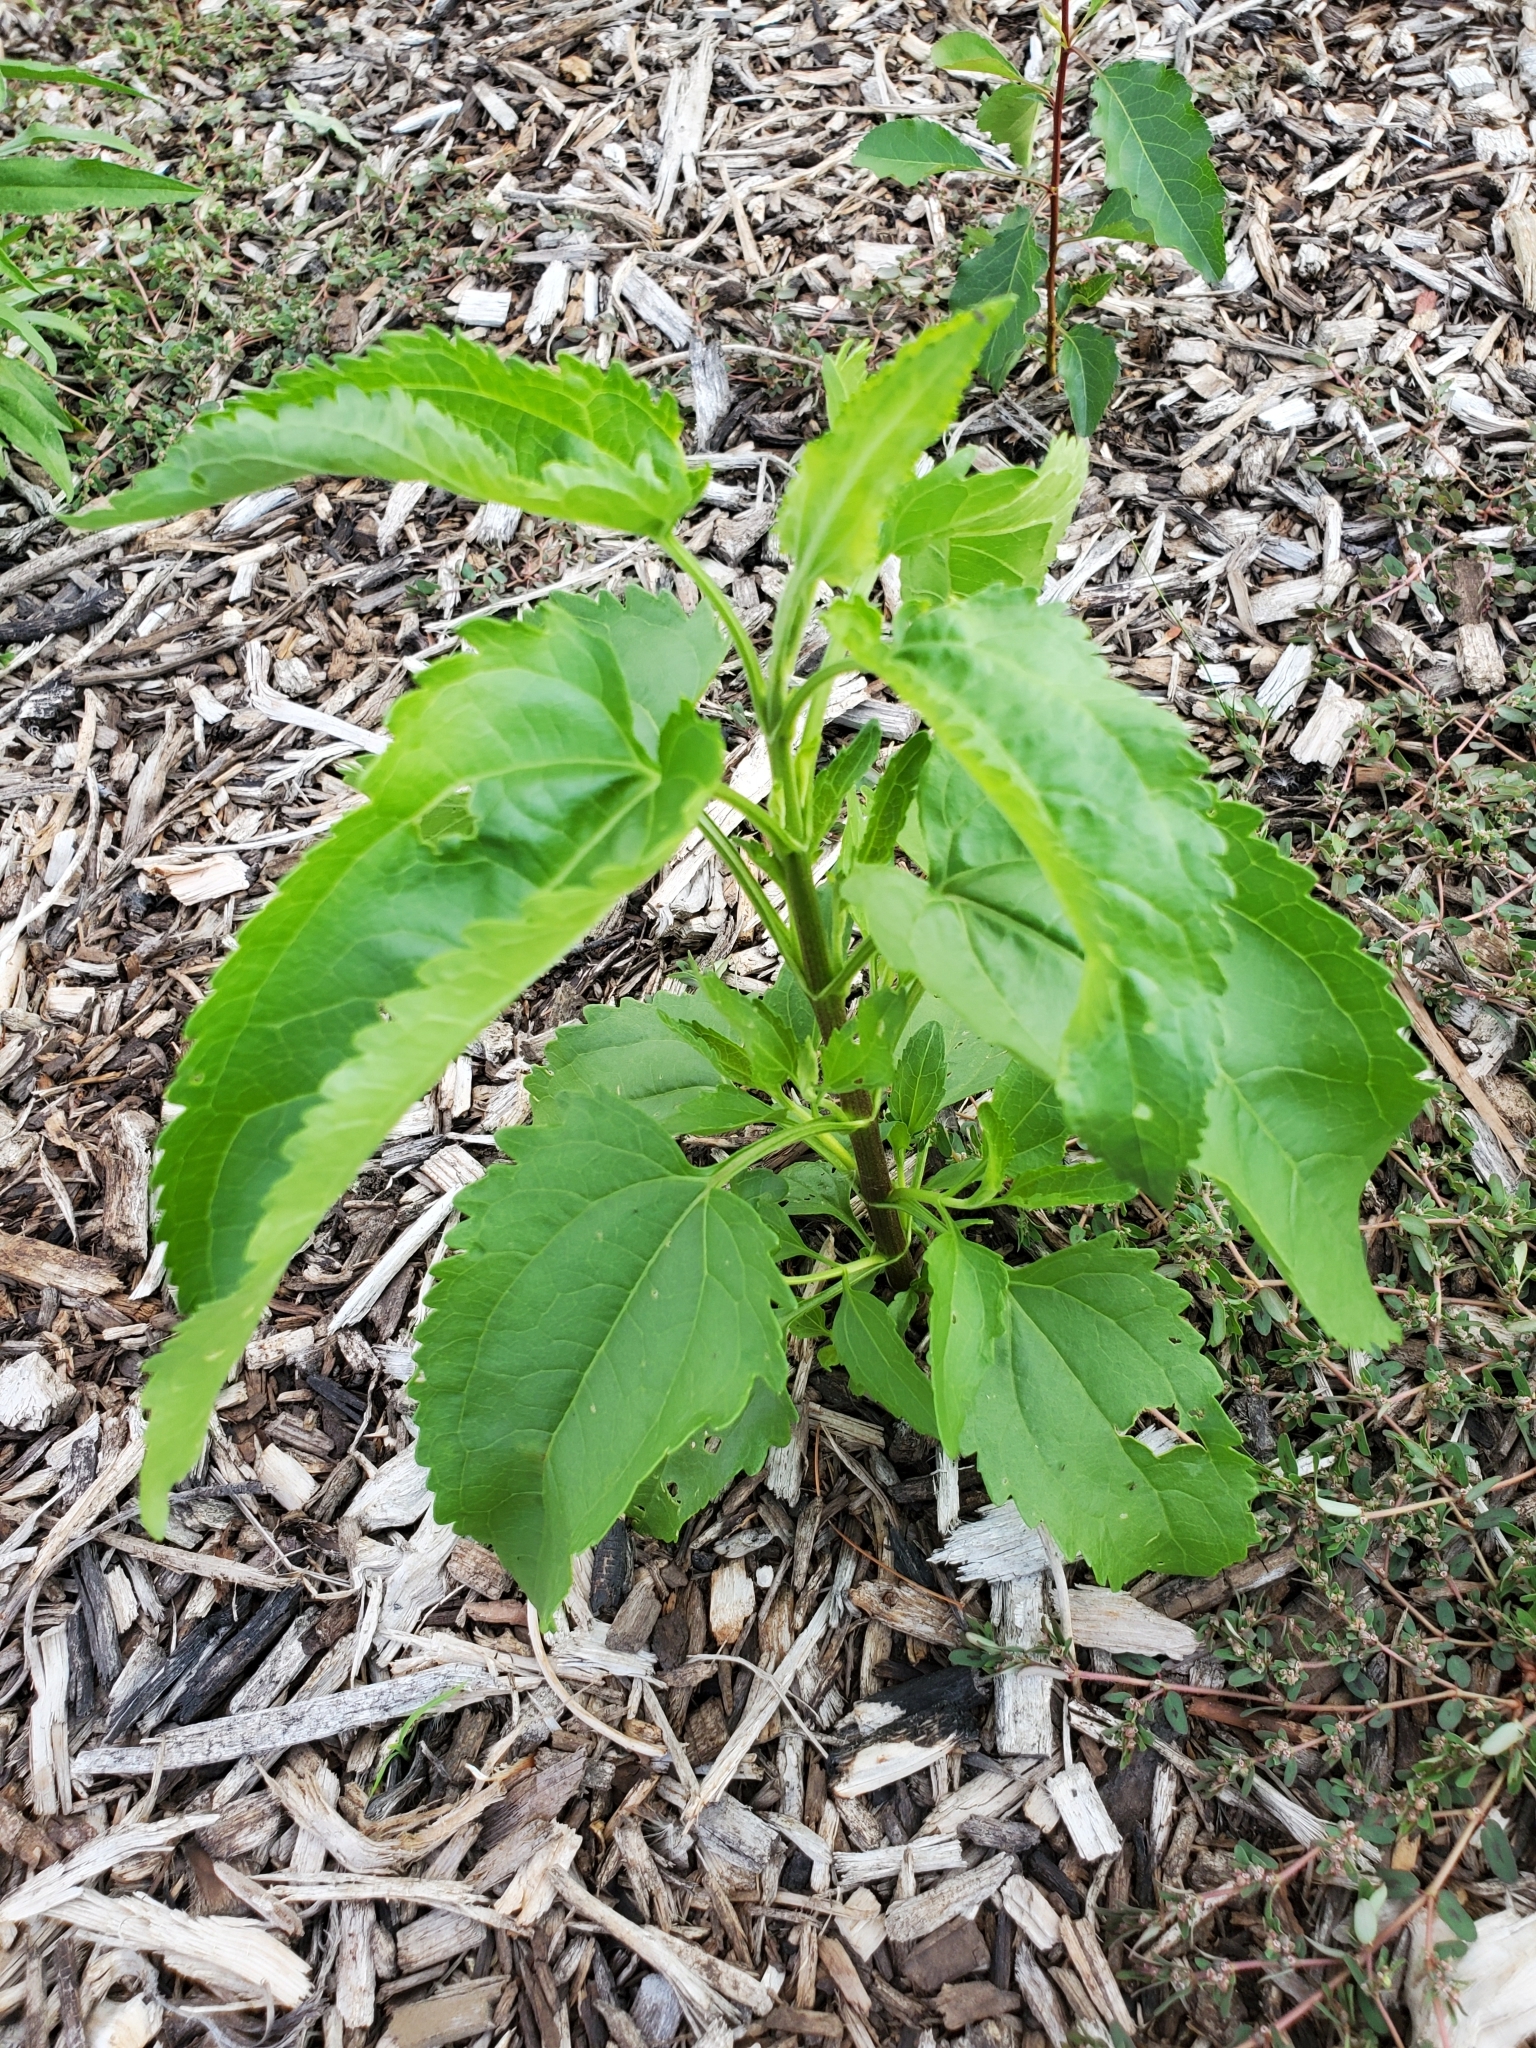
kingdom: Plantae
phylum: Tracheophyta
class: Magnoliopsida
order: Asterales
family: Asteraceae
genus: Eupatorium
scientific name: Eupatorium serotinum
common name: Late boneset
